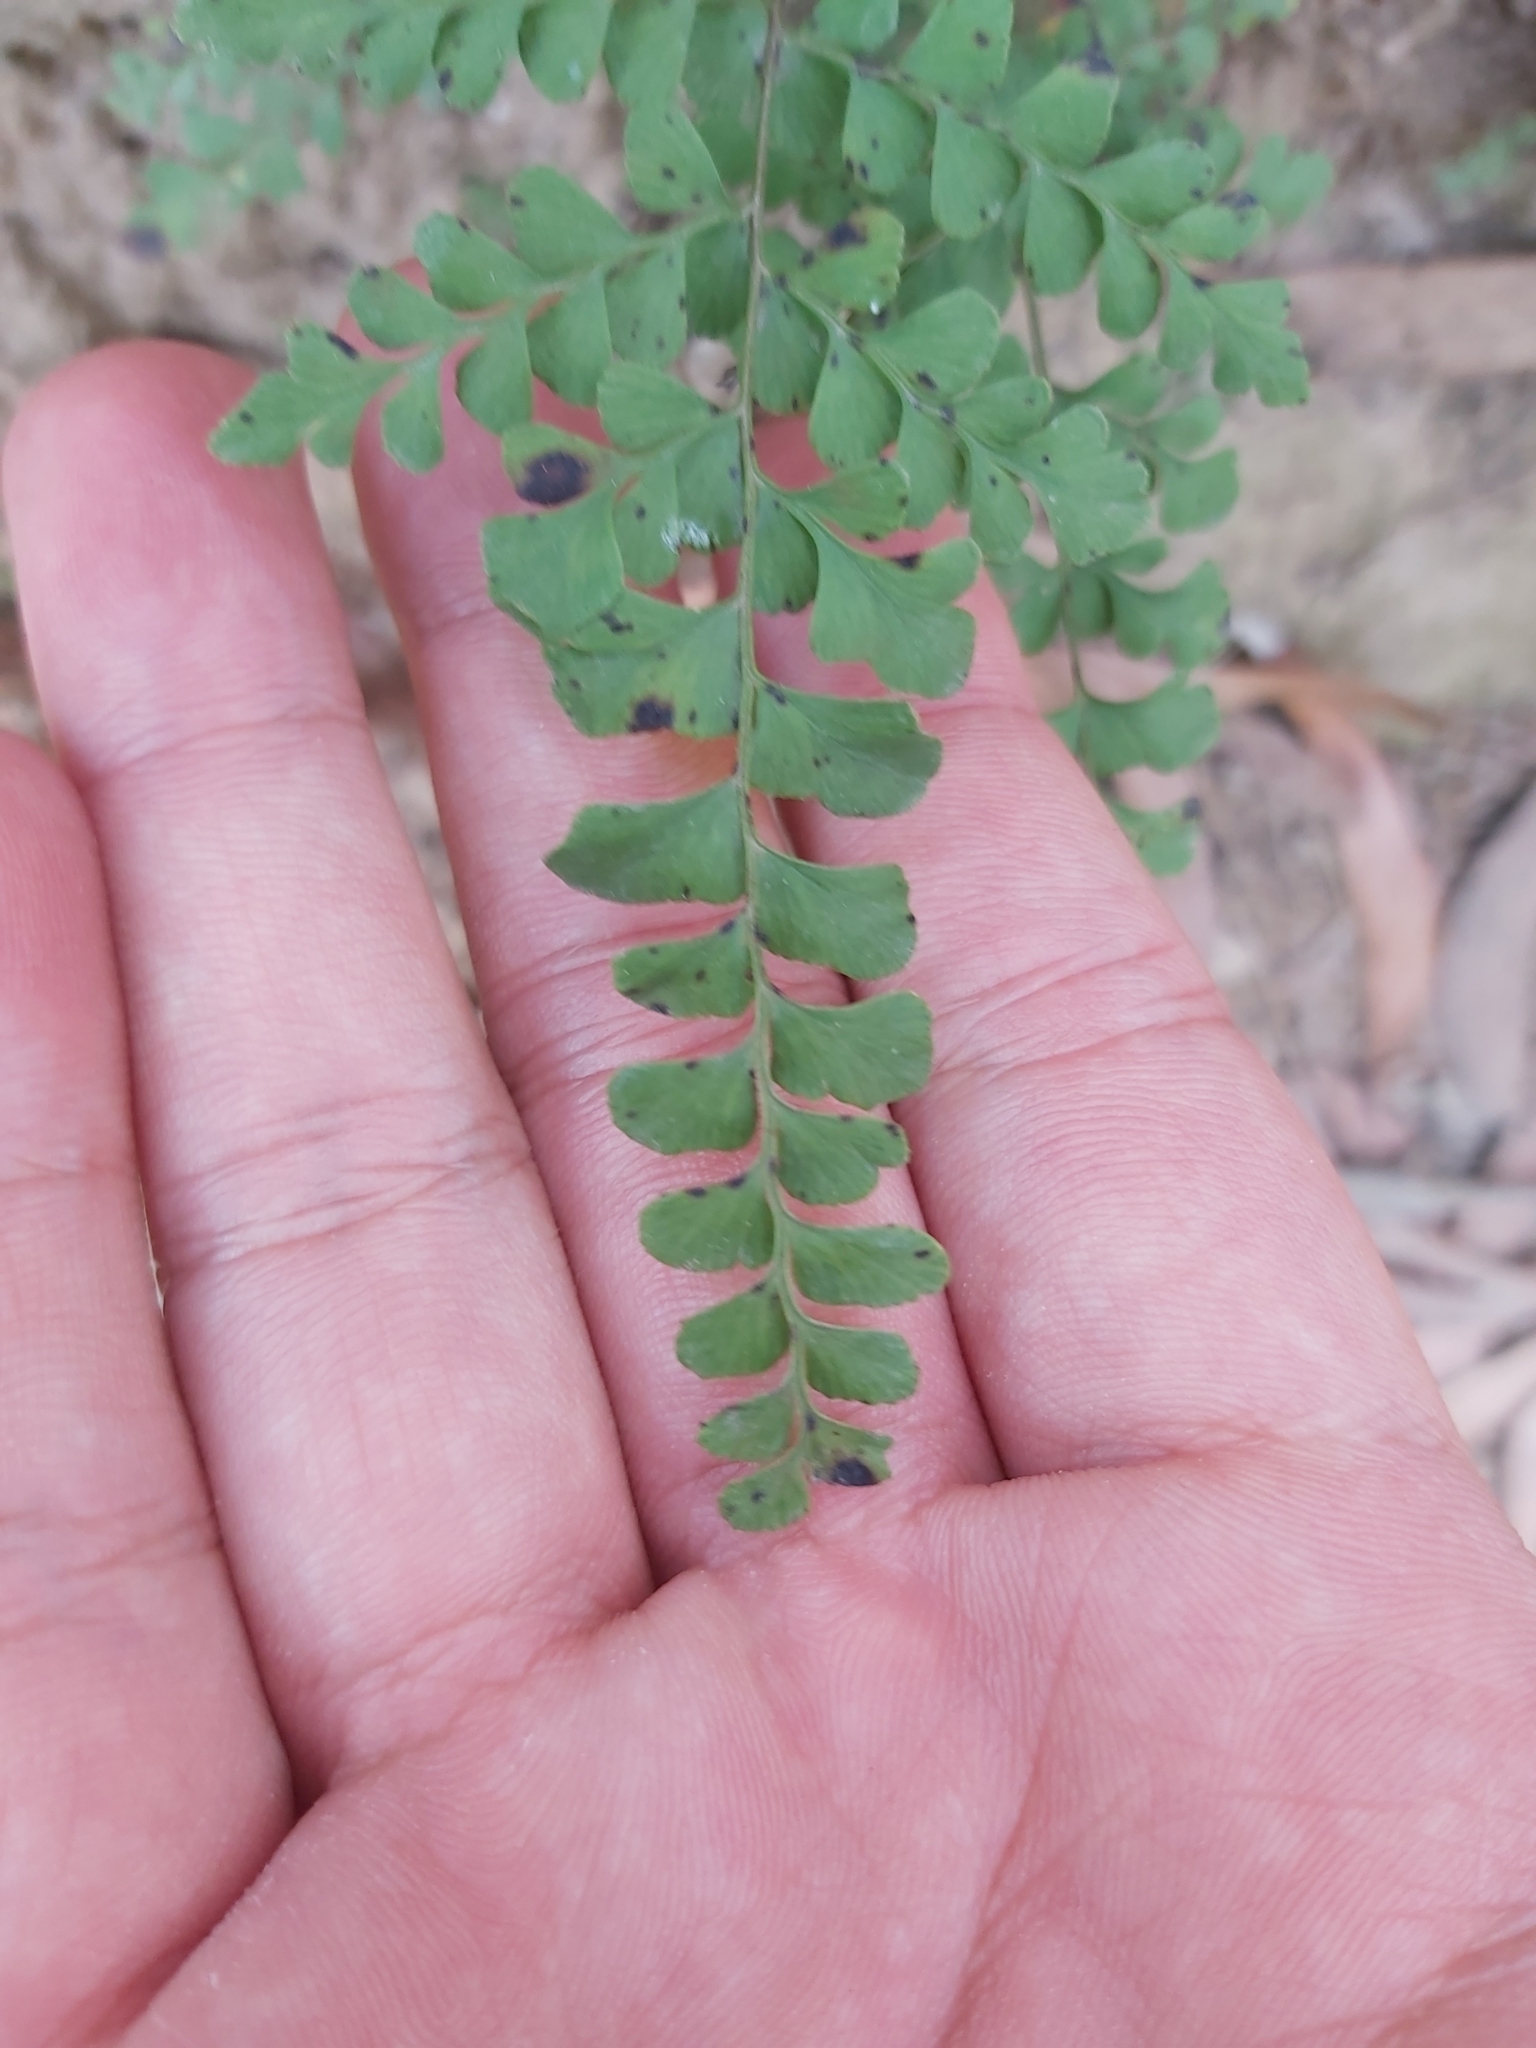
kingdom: Plantae
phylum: Tracheophyta
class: Polypodiopsida
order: Polypodiales
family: Lindsaeaceae
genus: Lindsaea
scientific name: Lindsaea media
